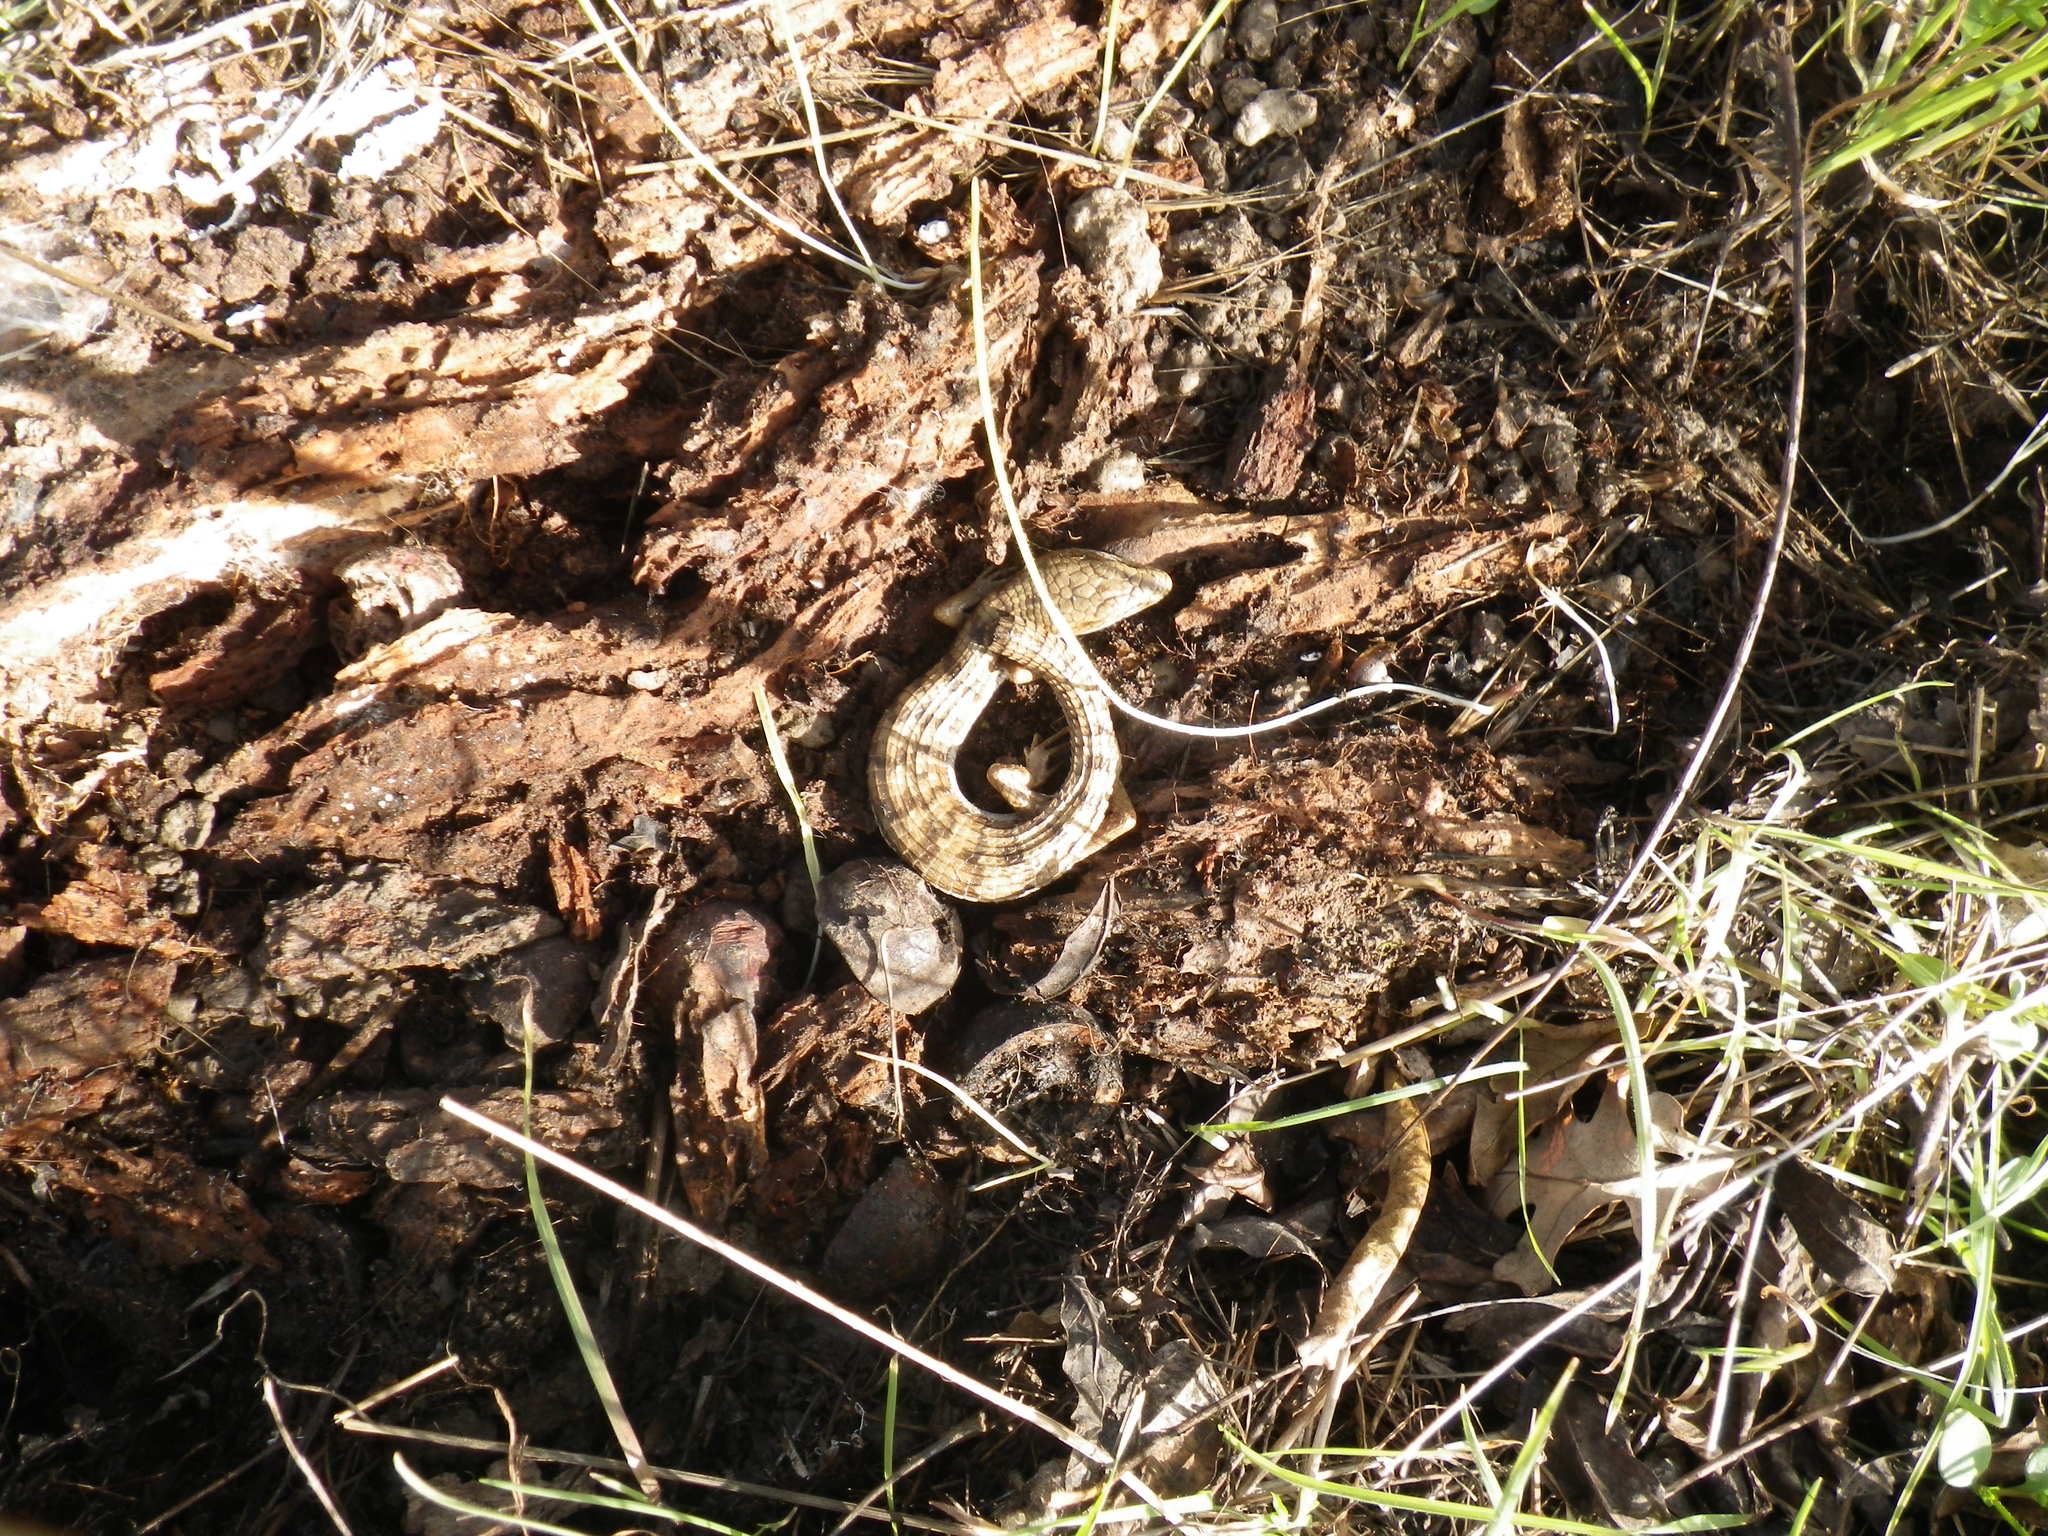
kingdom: Animalia
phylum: Chordata
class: Squamata
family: Anguidae
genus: Elgaria
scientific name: Elgaria multicarinata
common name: Southern alligator lizard
